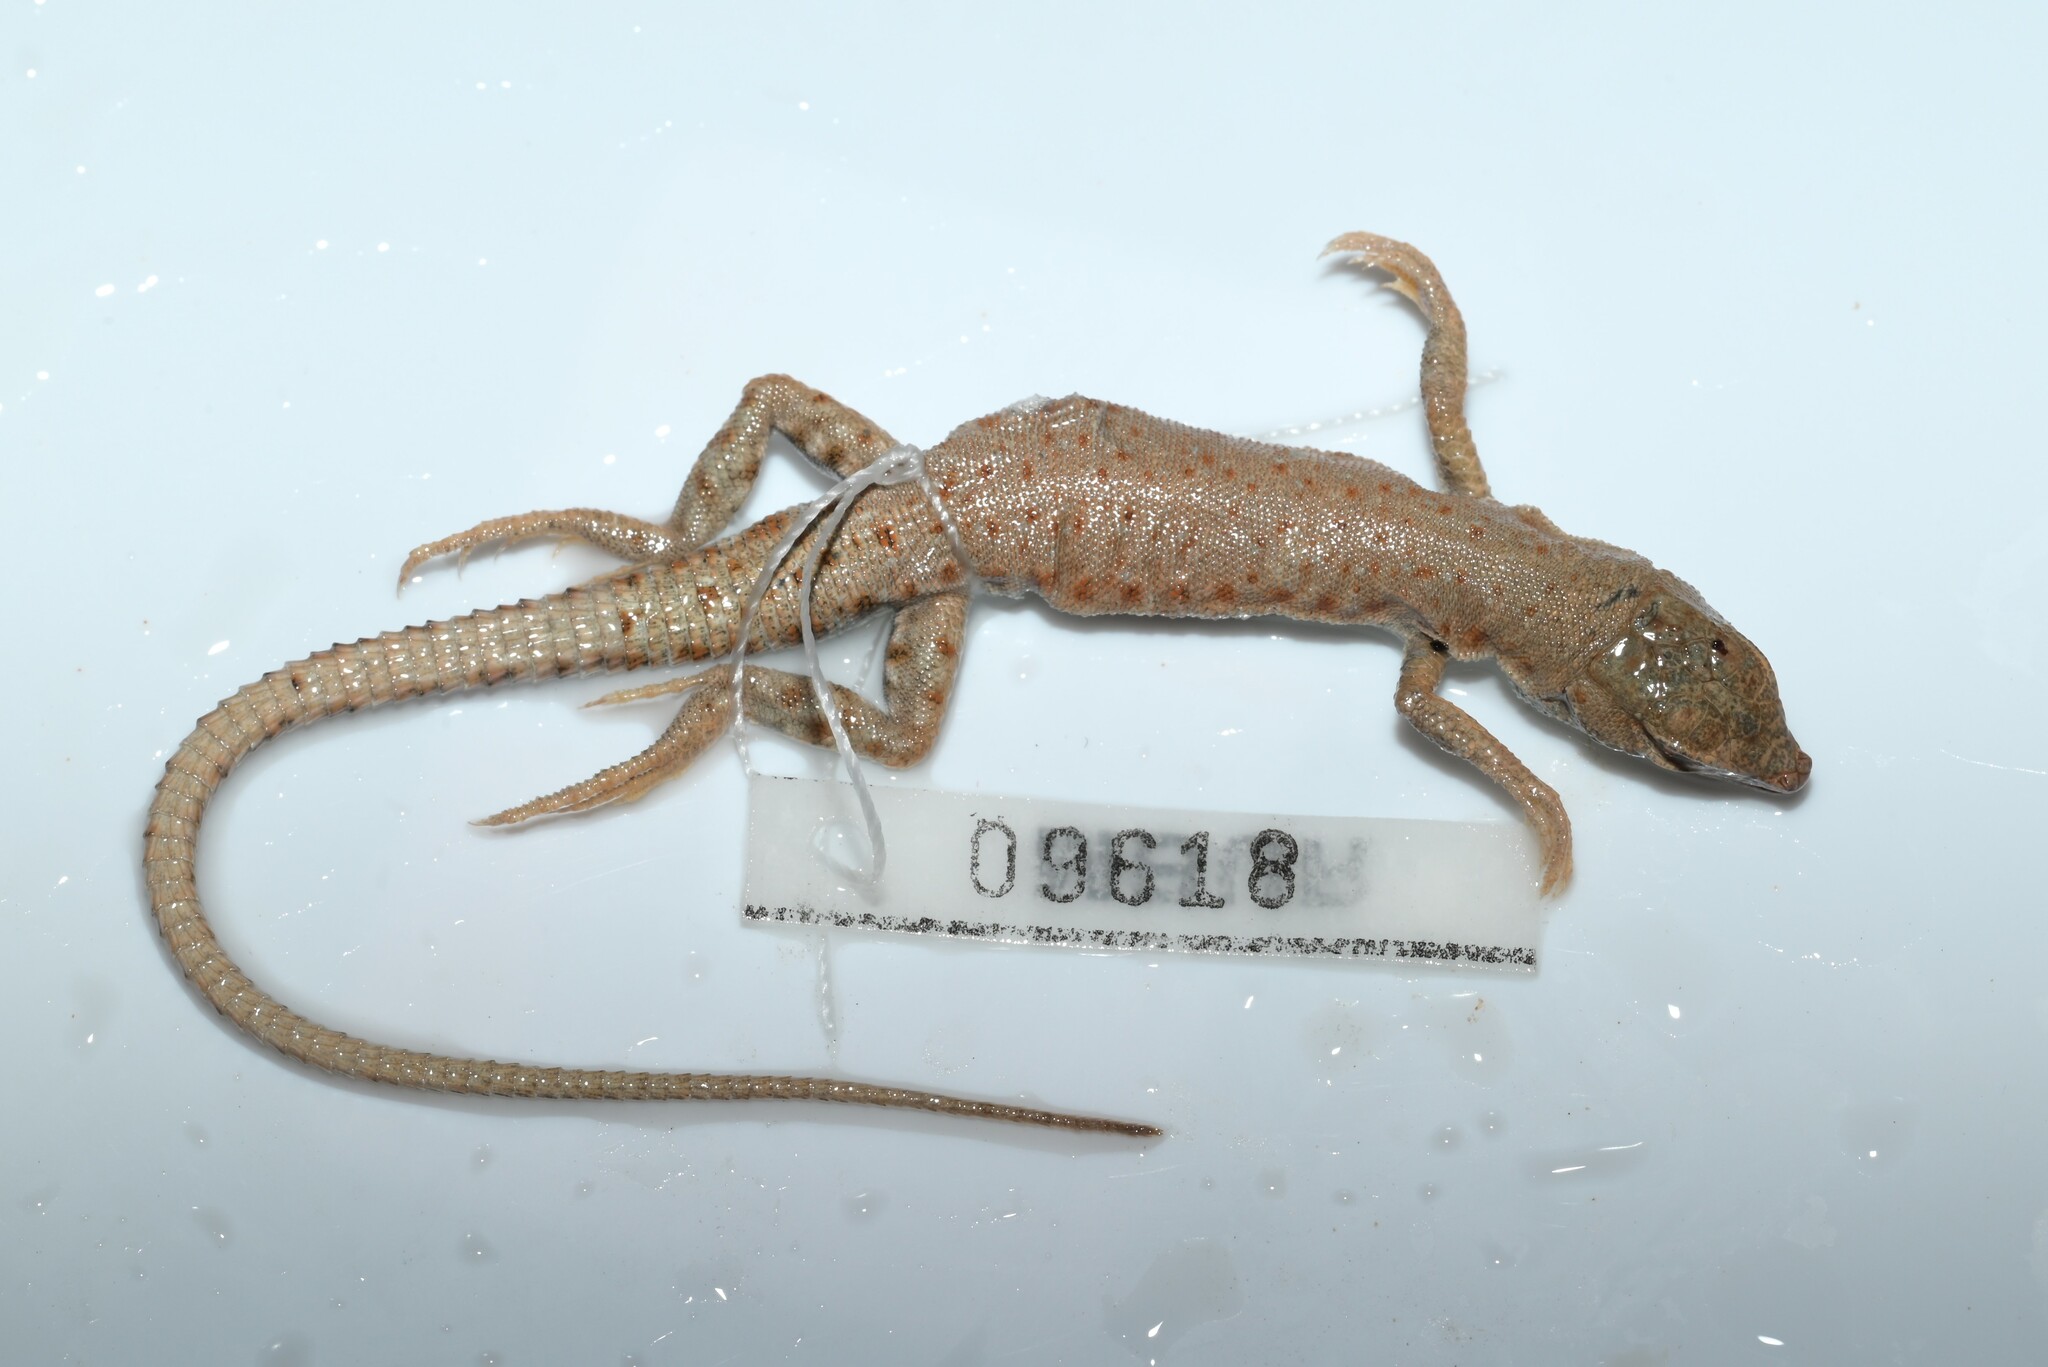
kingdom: Animalia
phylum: Chordata
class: Squamata
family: Lacertidae
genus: Mesalina
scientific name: Mesalina brevirostris
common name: Blanford's short-nosed desert lizard
